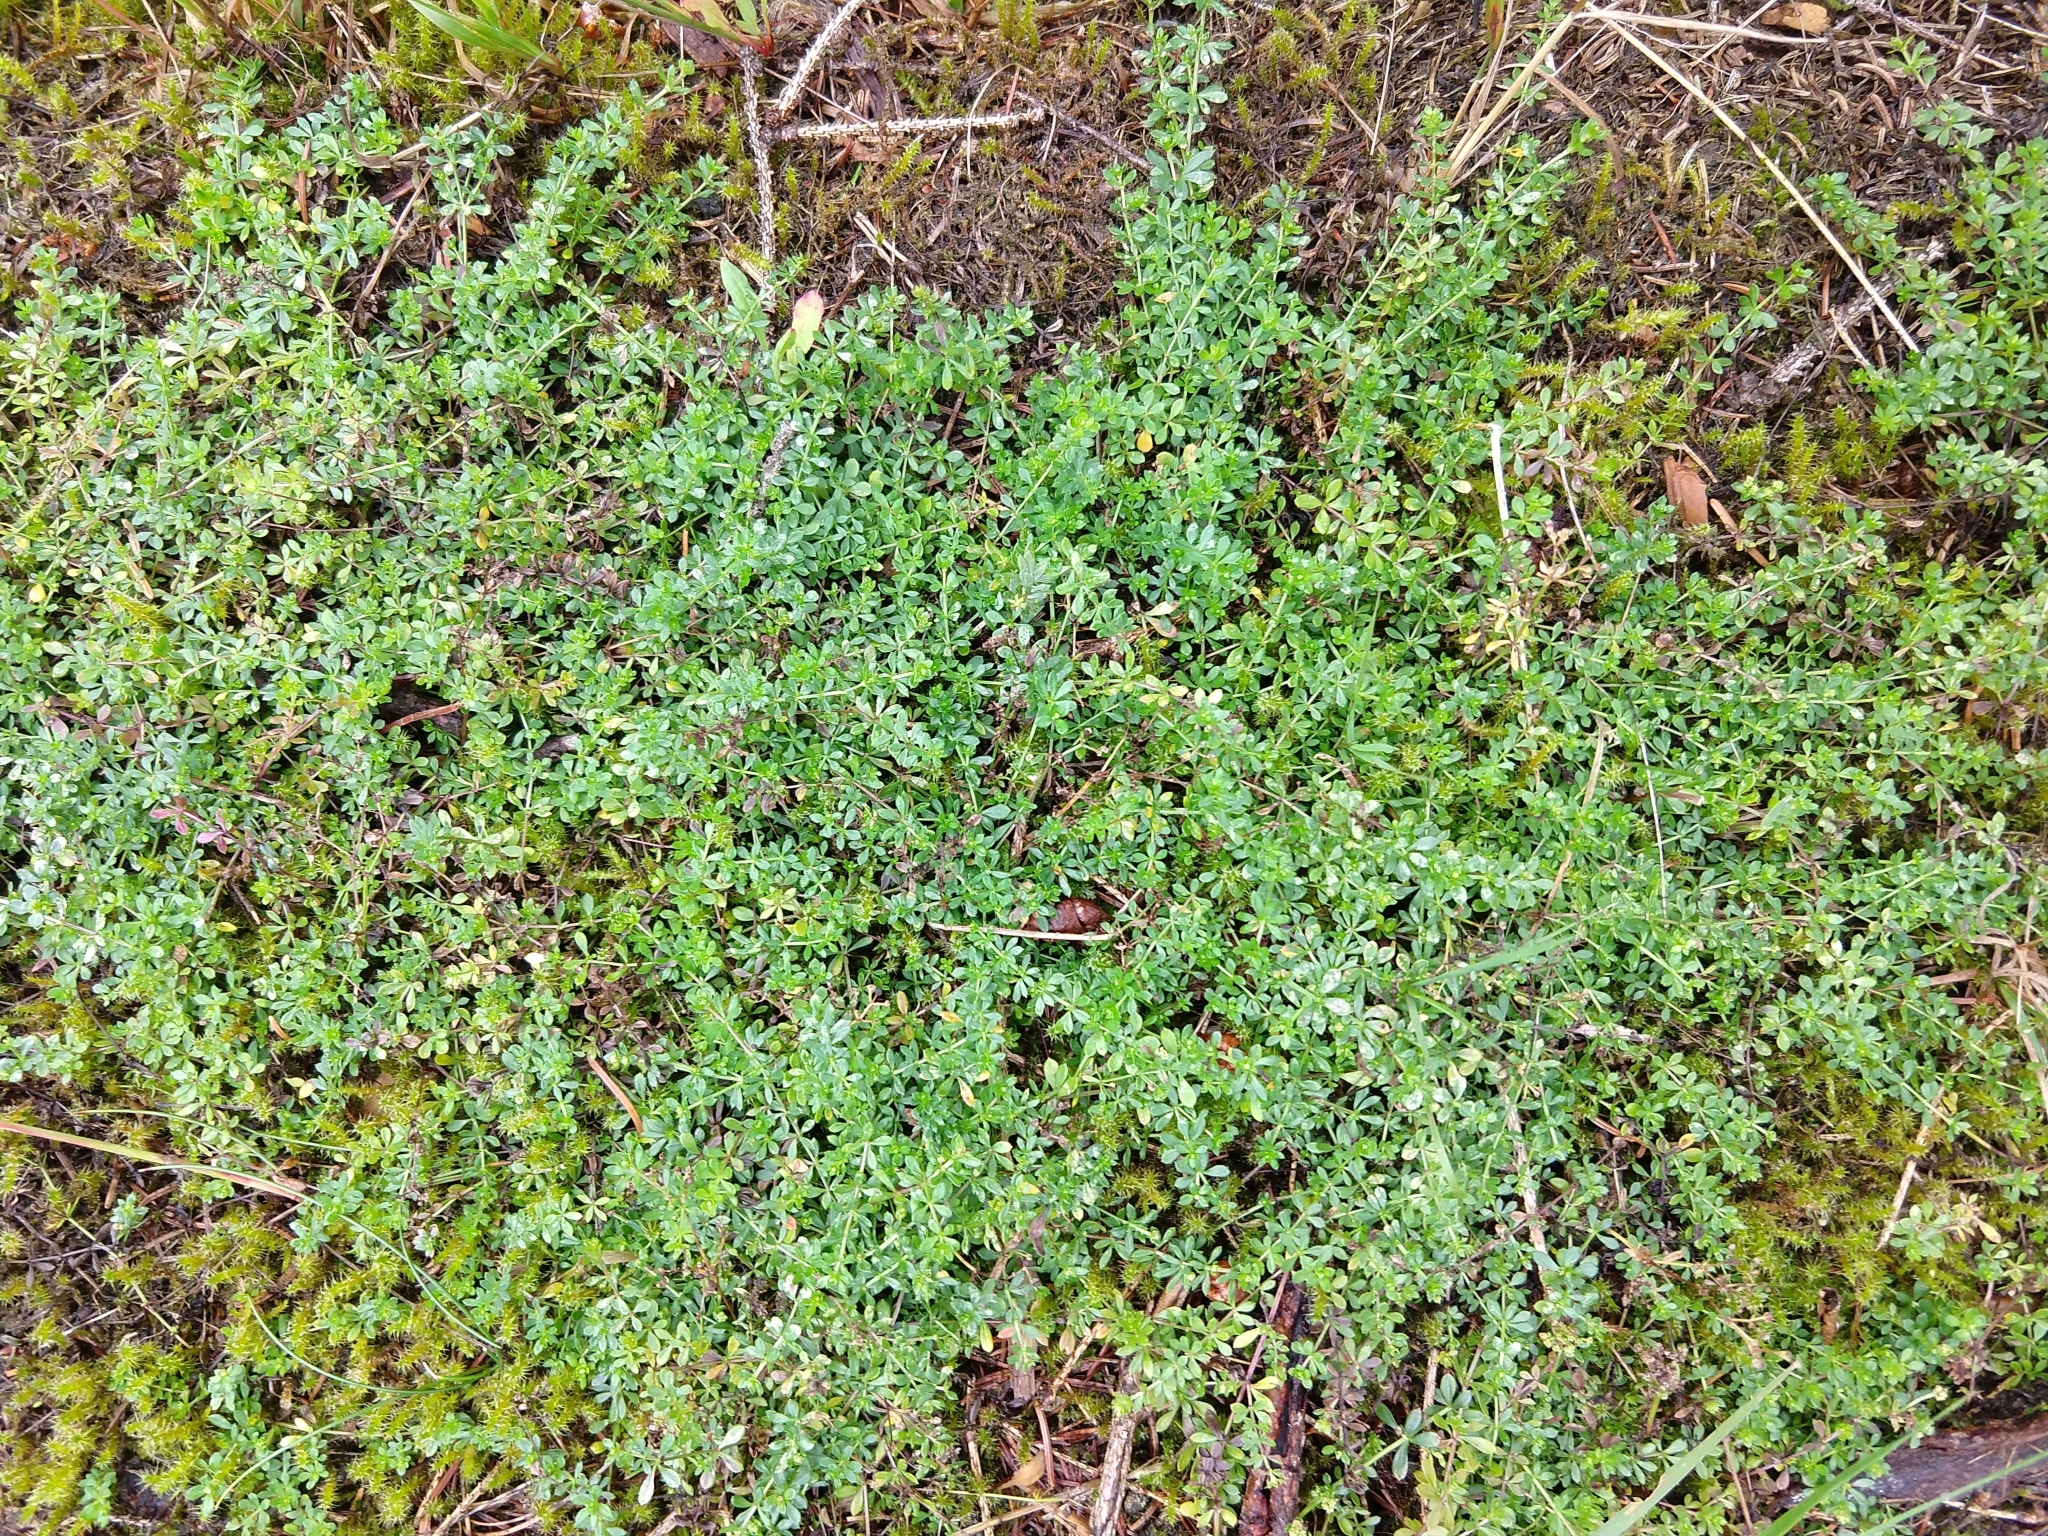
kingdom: Plantae
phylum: Tracheophyta
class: Magnoliopsida
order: Gentianales
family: Rubiaceae
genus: Galium
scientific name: Galium saxatile
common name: Heath bedstraw
